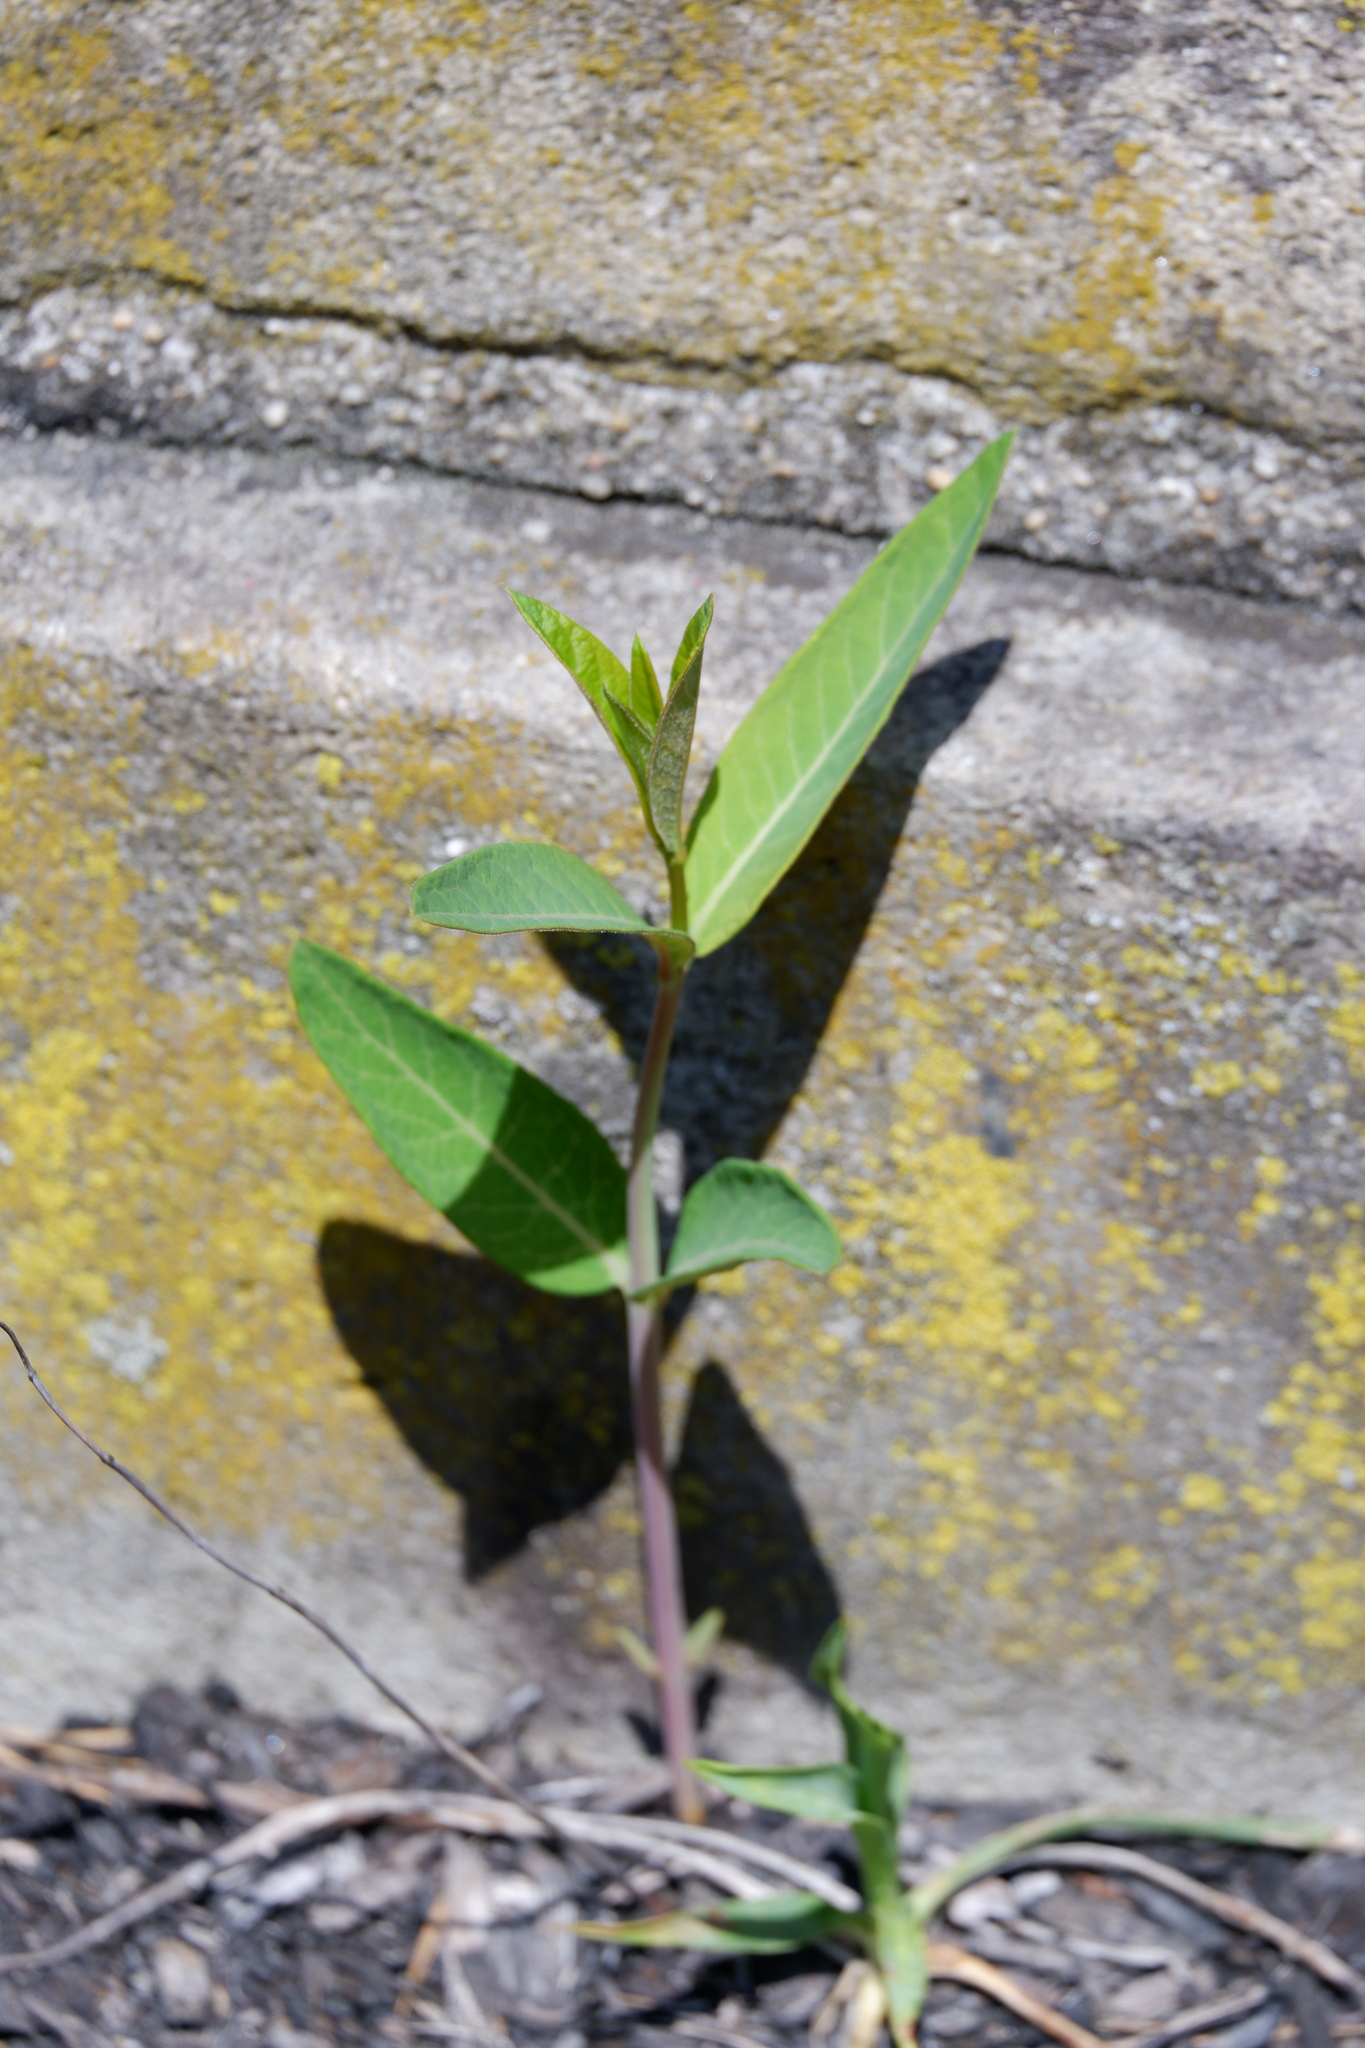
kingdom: Plantae
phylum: Tracheophyta
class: Magnoliopsida
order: Gentianales
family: Apocynaceae
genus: Apocynum
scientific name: Apocynum cannabinum
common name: Hemp dogbane
